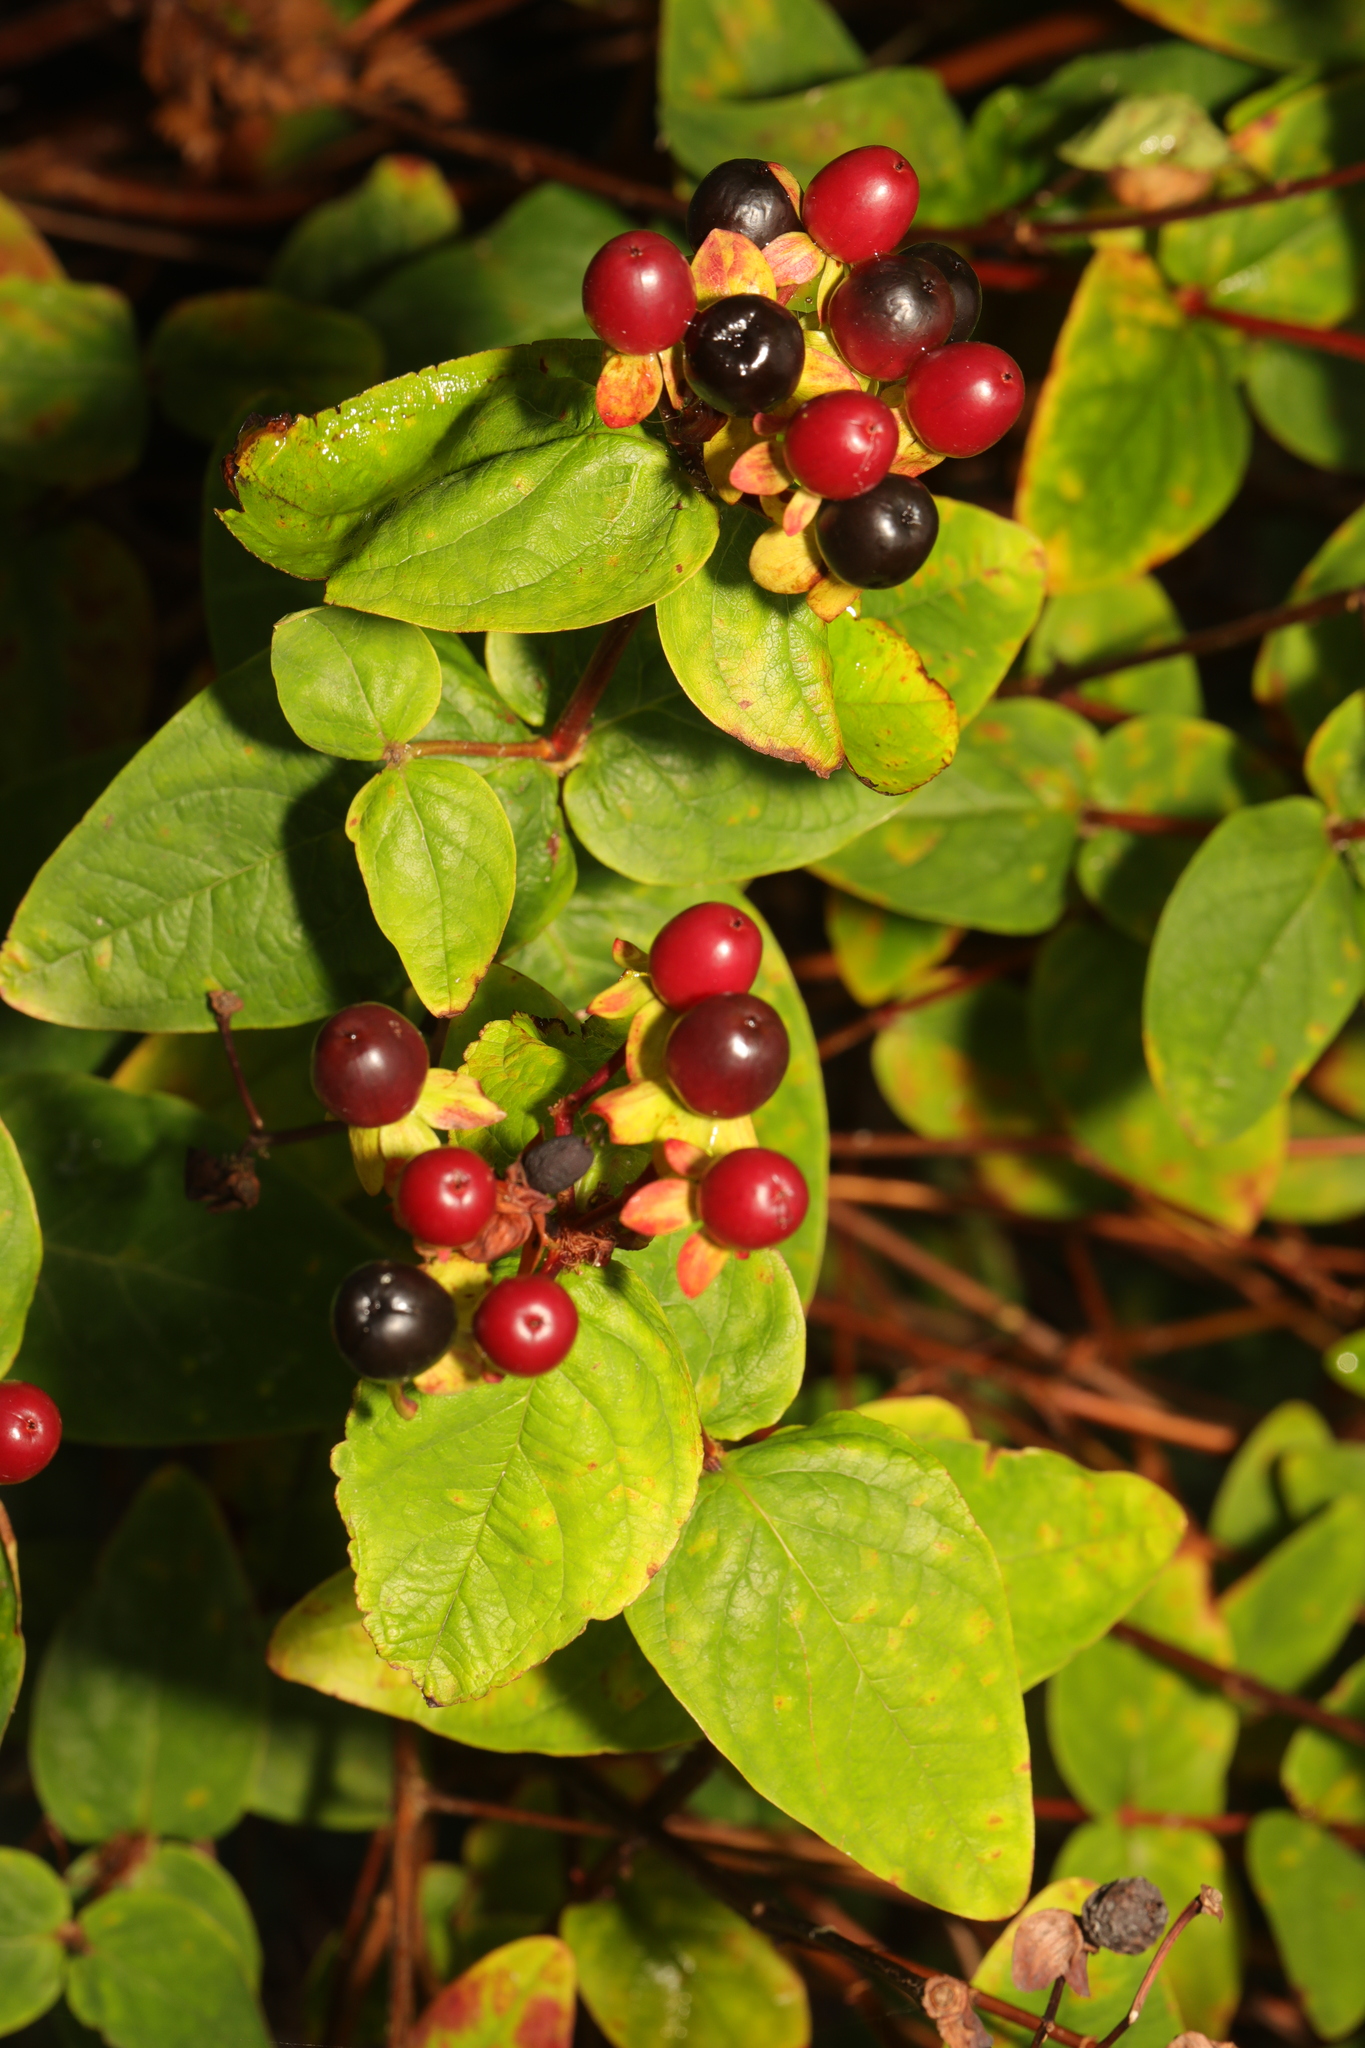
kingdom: Plantae
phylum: Tracheophyta
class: Magnoliopsida
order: Malpighiales
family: Hypericaceae
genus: Hypericum
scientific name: Hypericum androsaemum
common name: Sweet-amber
